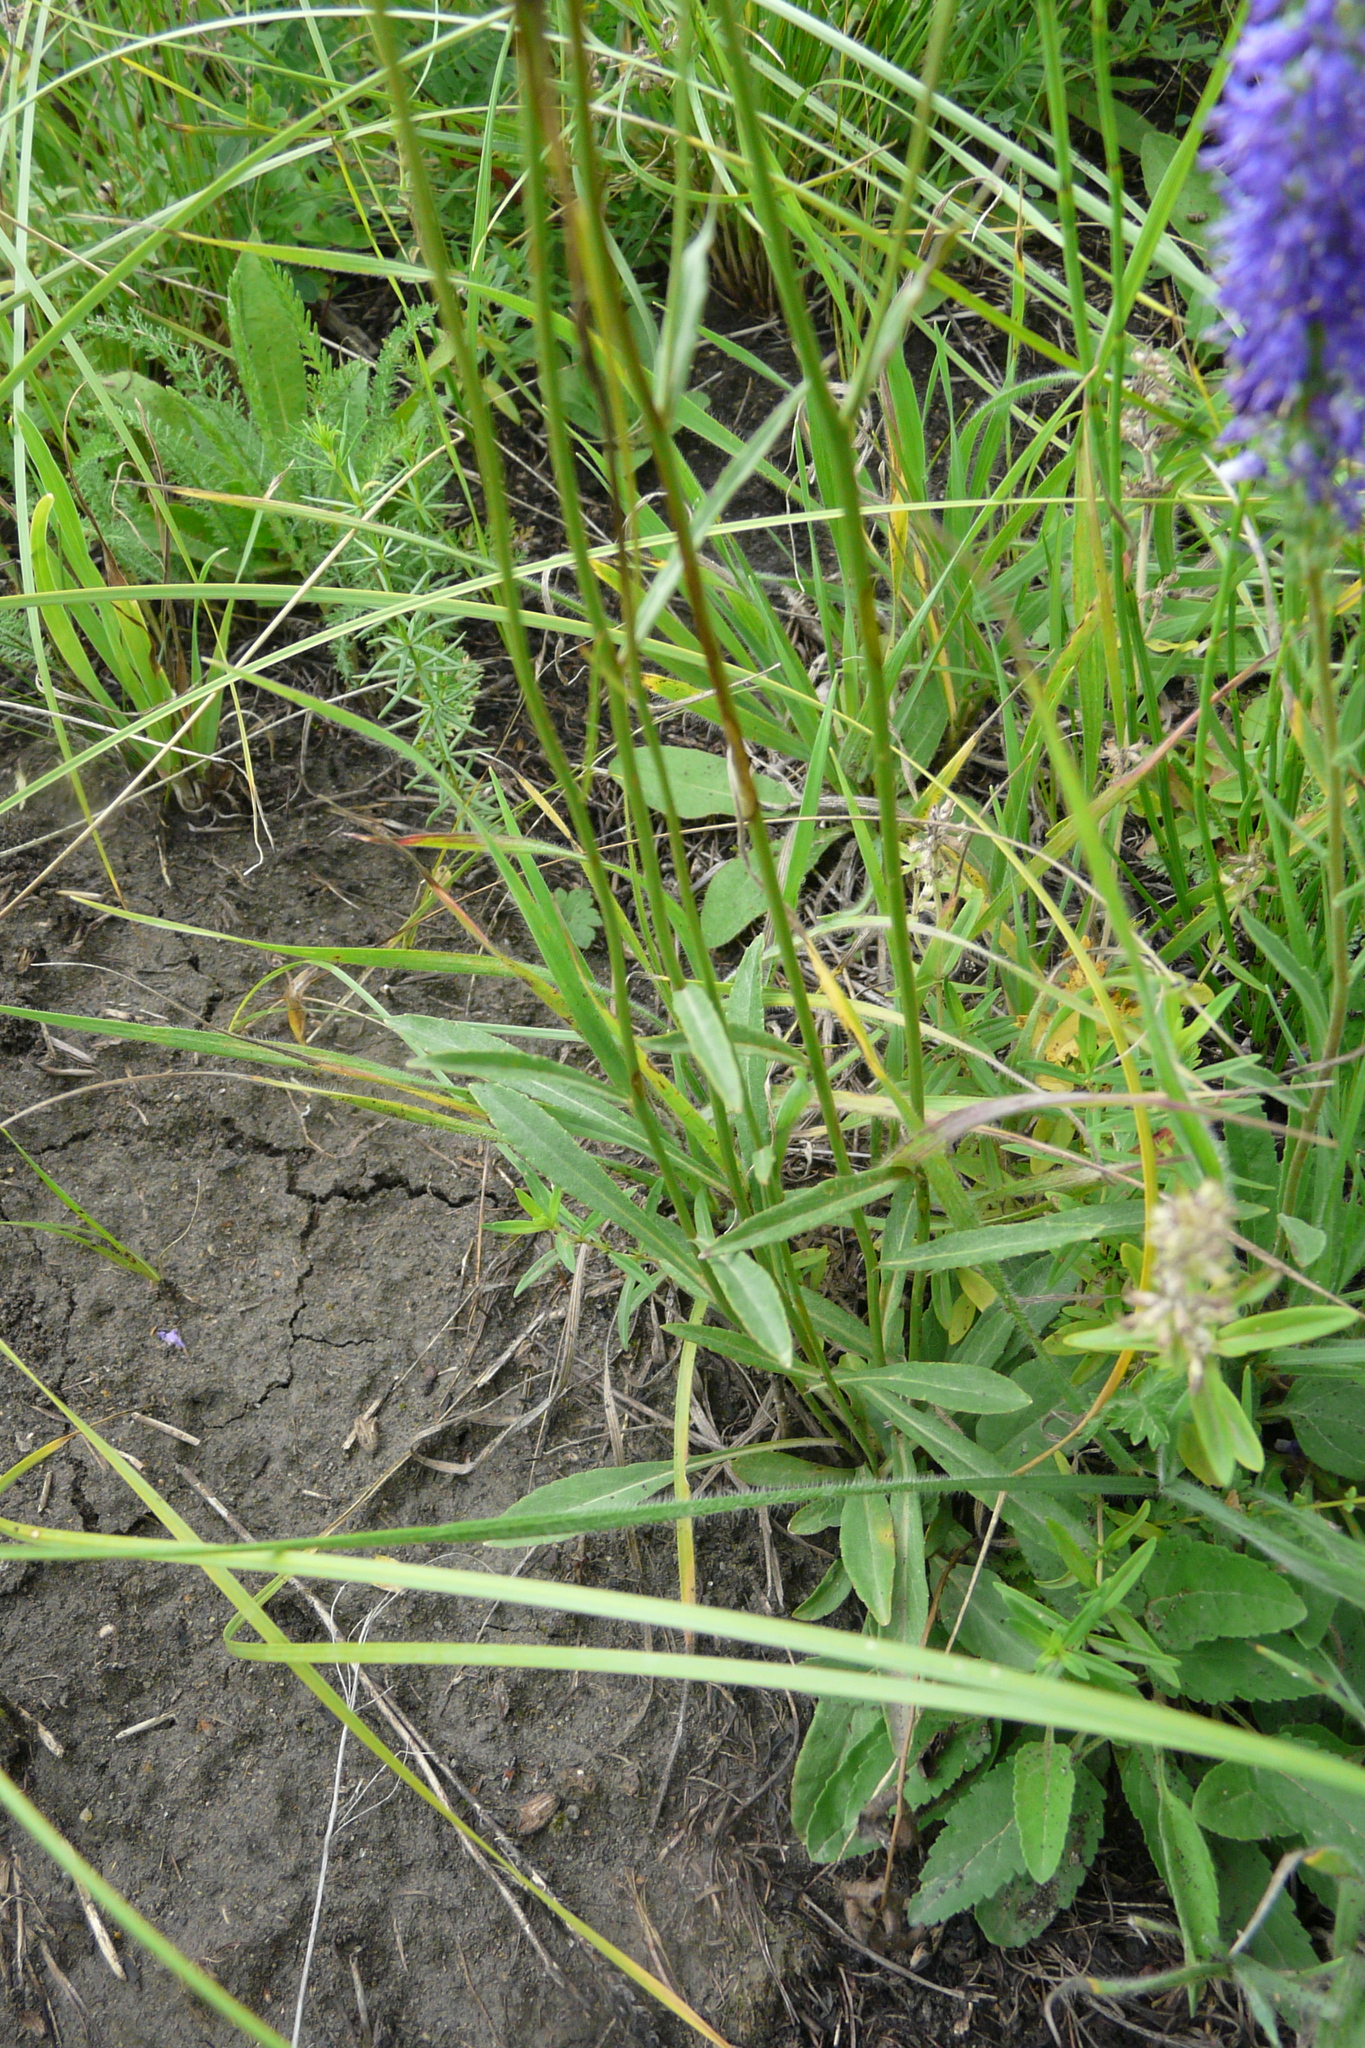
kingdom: Plantae
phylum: Tracheophyta
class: Magnoliopsida
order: Asterales
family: Campanulaceae
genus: Campanula
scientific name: Campanula stevenii
